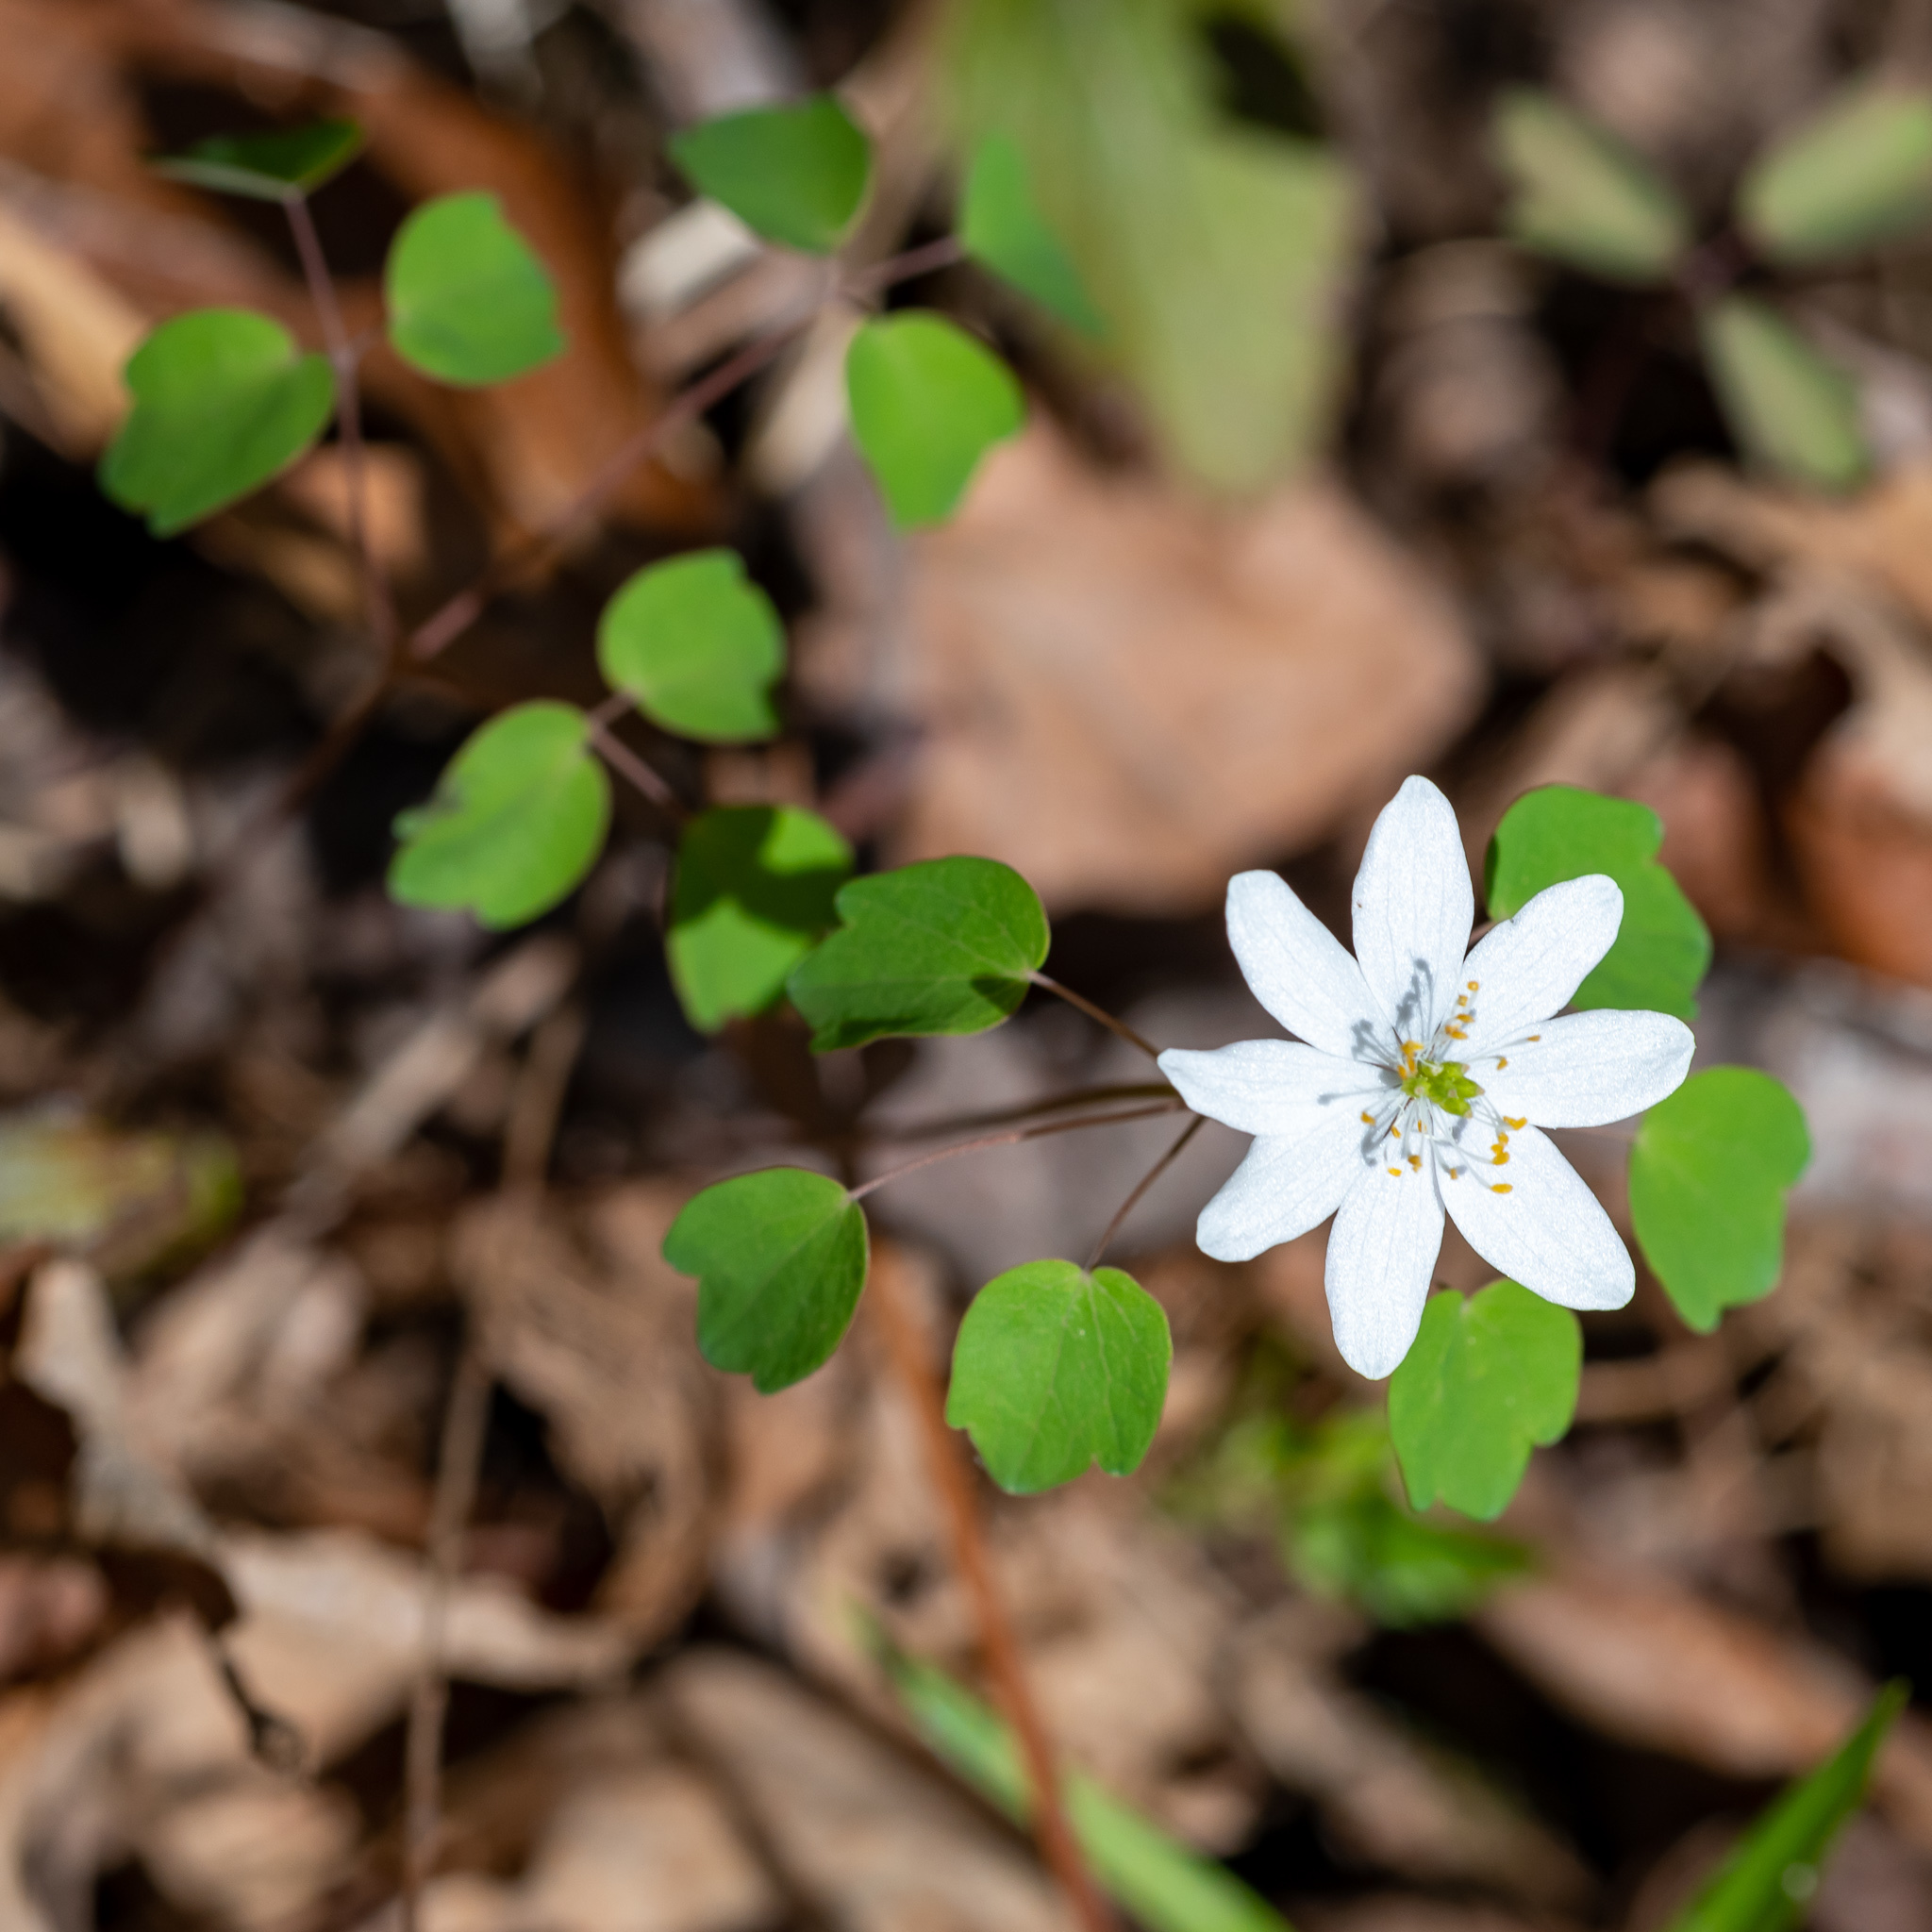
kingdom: Plantae
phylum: Tracheophyta
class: Magnoliopsida
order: Ranunculales
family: Ranunculaceae
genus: Thalictrum
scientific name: Thalictrum thalictroides
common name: Rue-anemone
